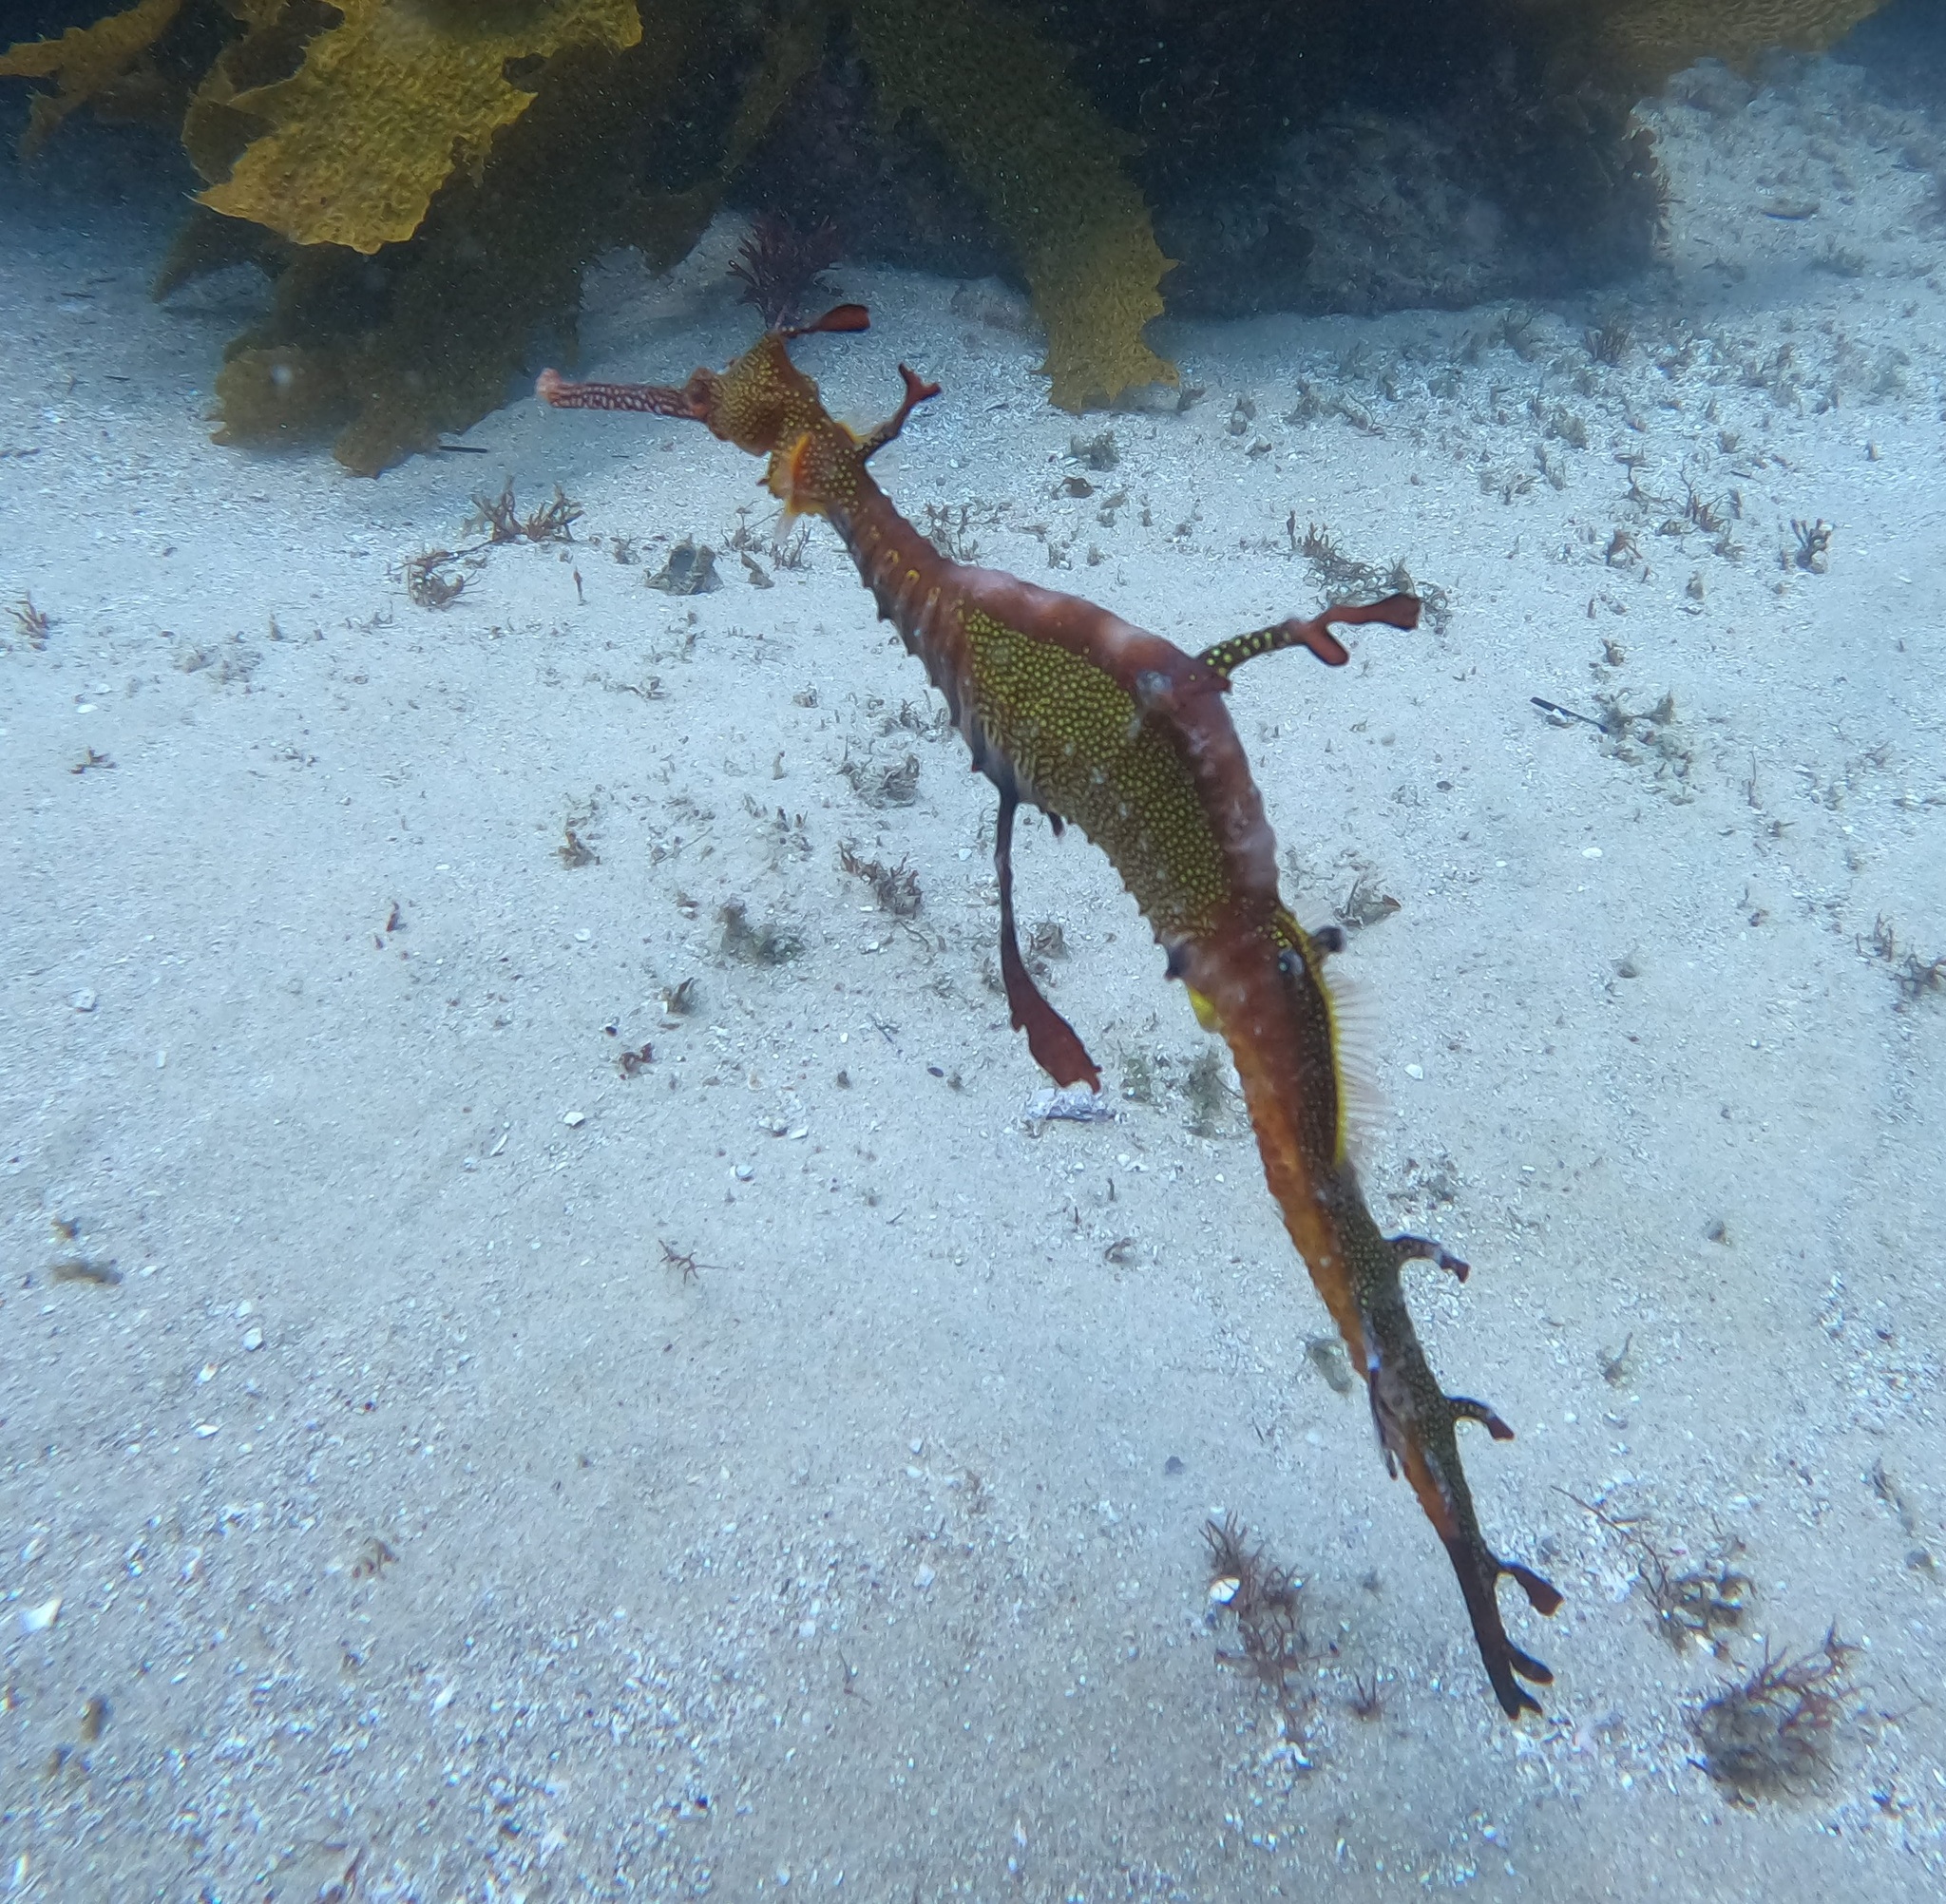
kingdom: Animalia
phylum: Chordata
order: Syngnathiformes
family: Syngnathidae
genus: Phyllopteryx
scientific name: Phyllopteryx taeniolatus
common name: Common seadragon
